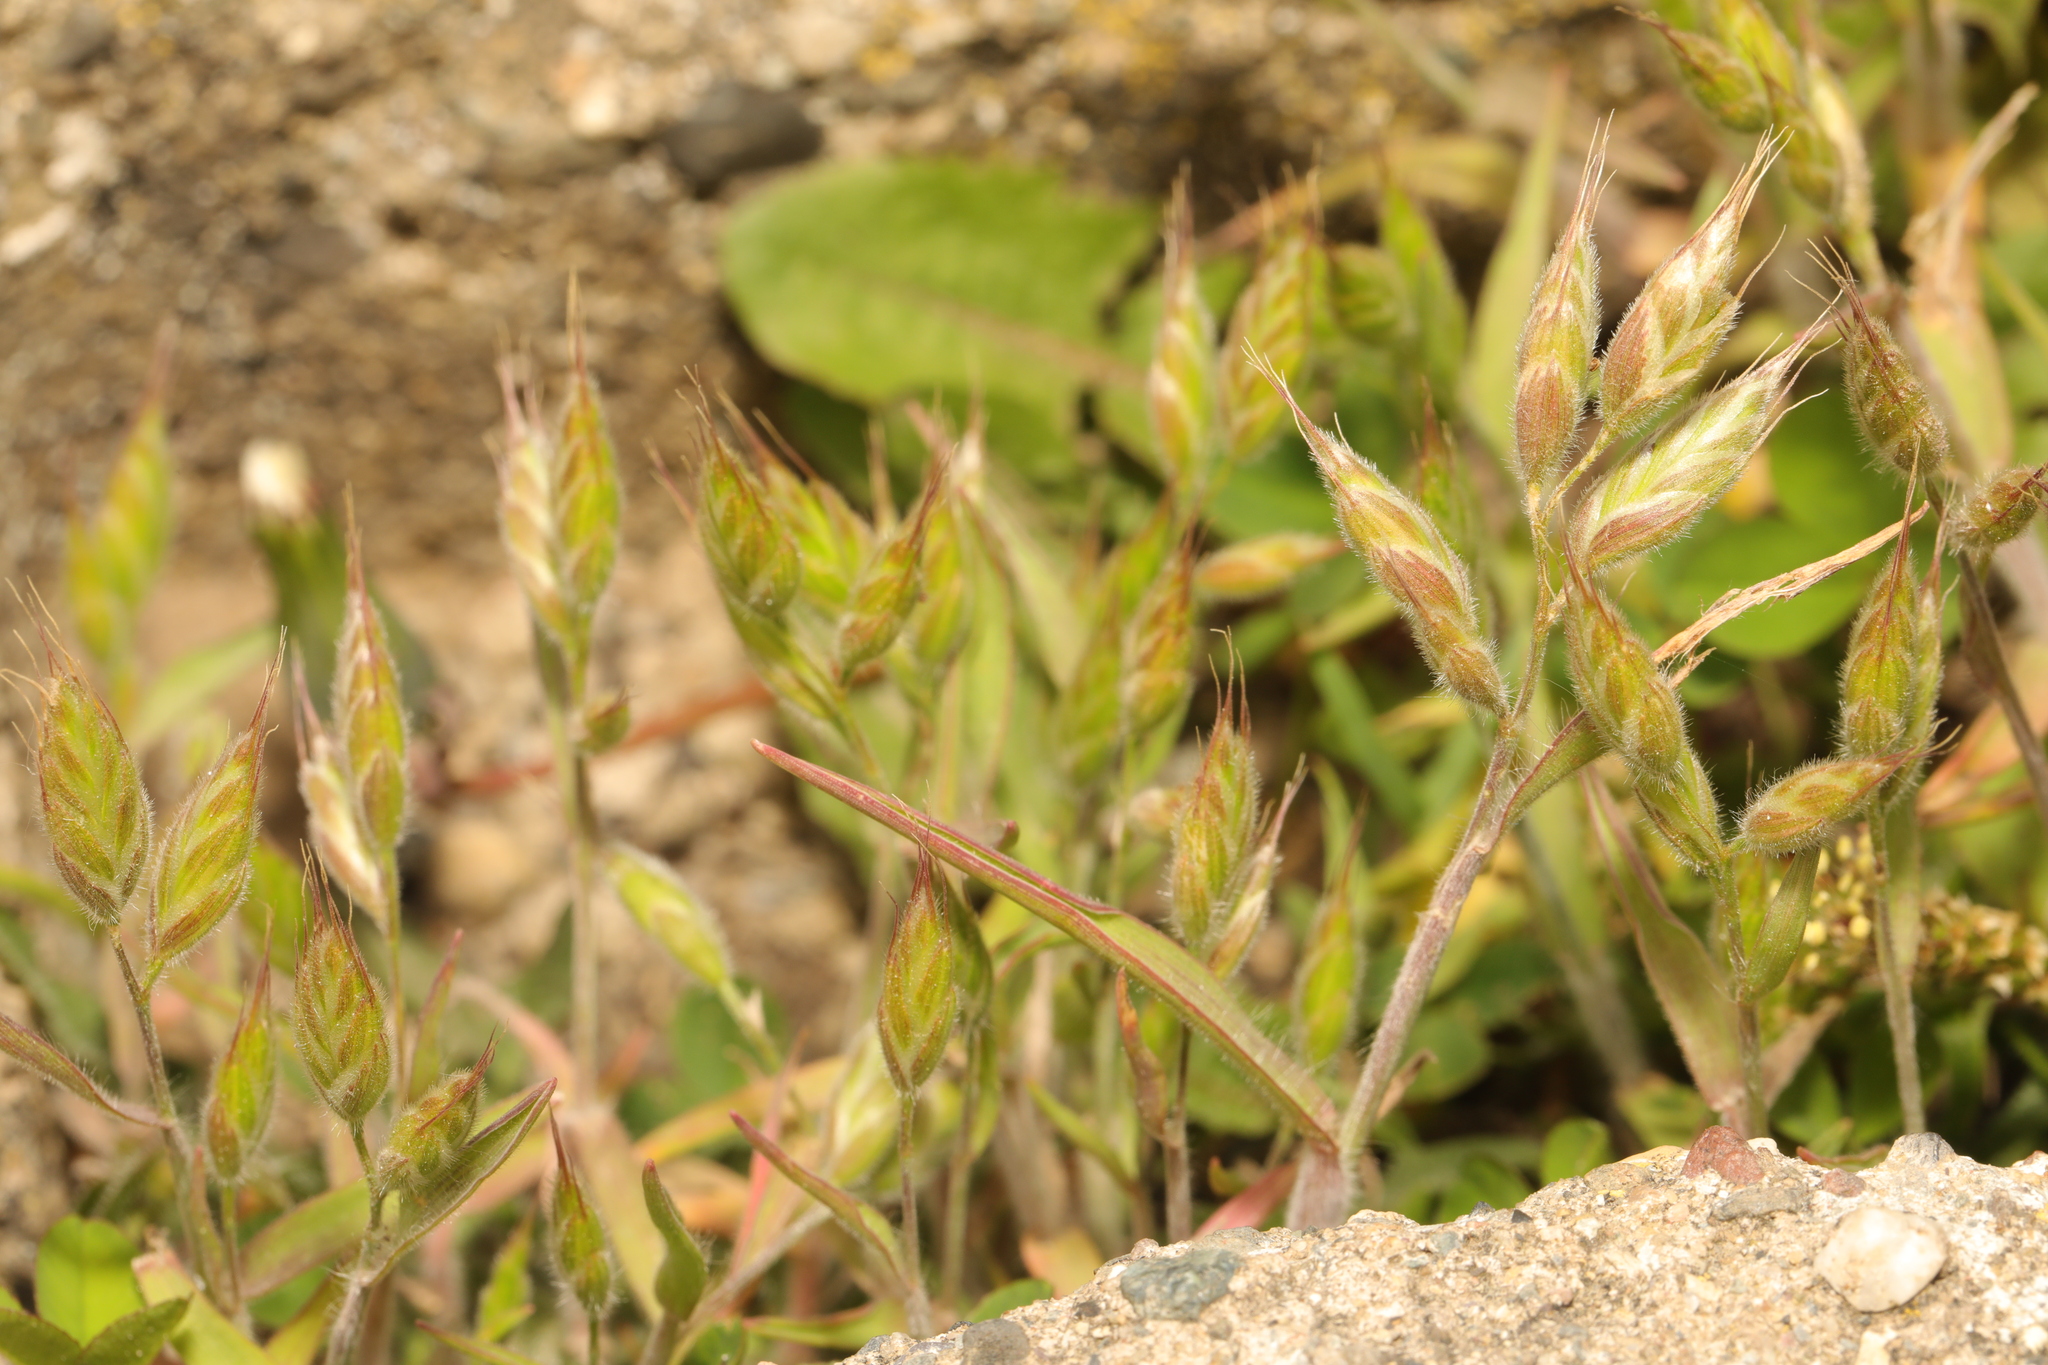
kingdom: Plantae
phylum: Tracheophyta
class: Liliopsida
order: Poales
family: Poaceae
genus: Bromus
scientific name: Bromus hordeaceus
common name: Soft brome
